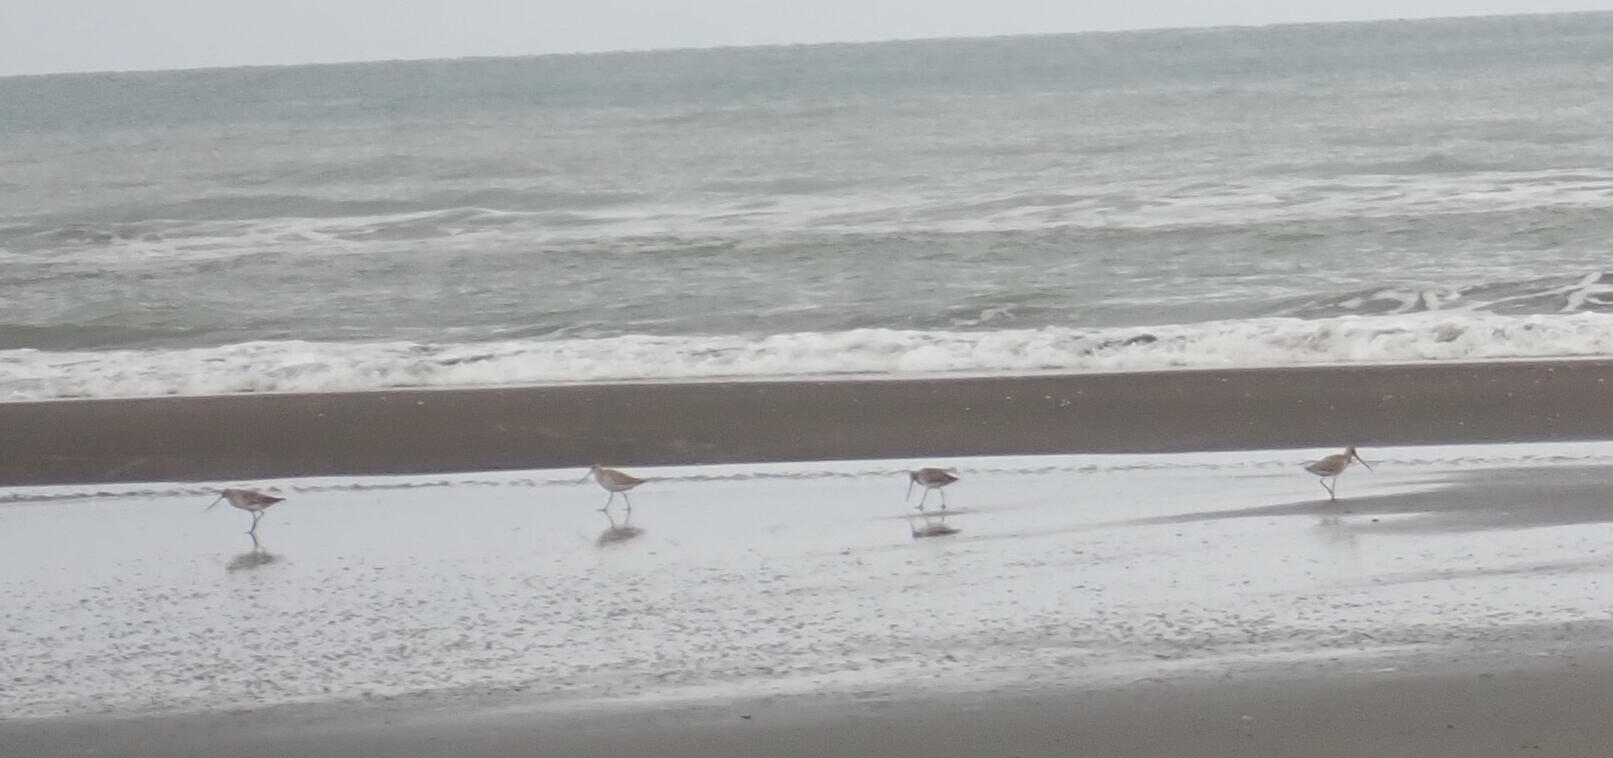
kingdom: Animalia
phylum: Chordata
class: Aves
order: Charadriiformes
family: Scolopacidae
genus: Limosa
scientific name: Limosa lapponica
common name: Bar-tailed godwit
